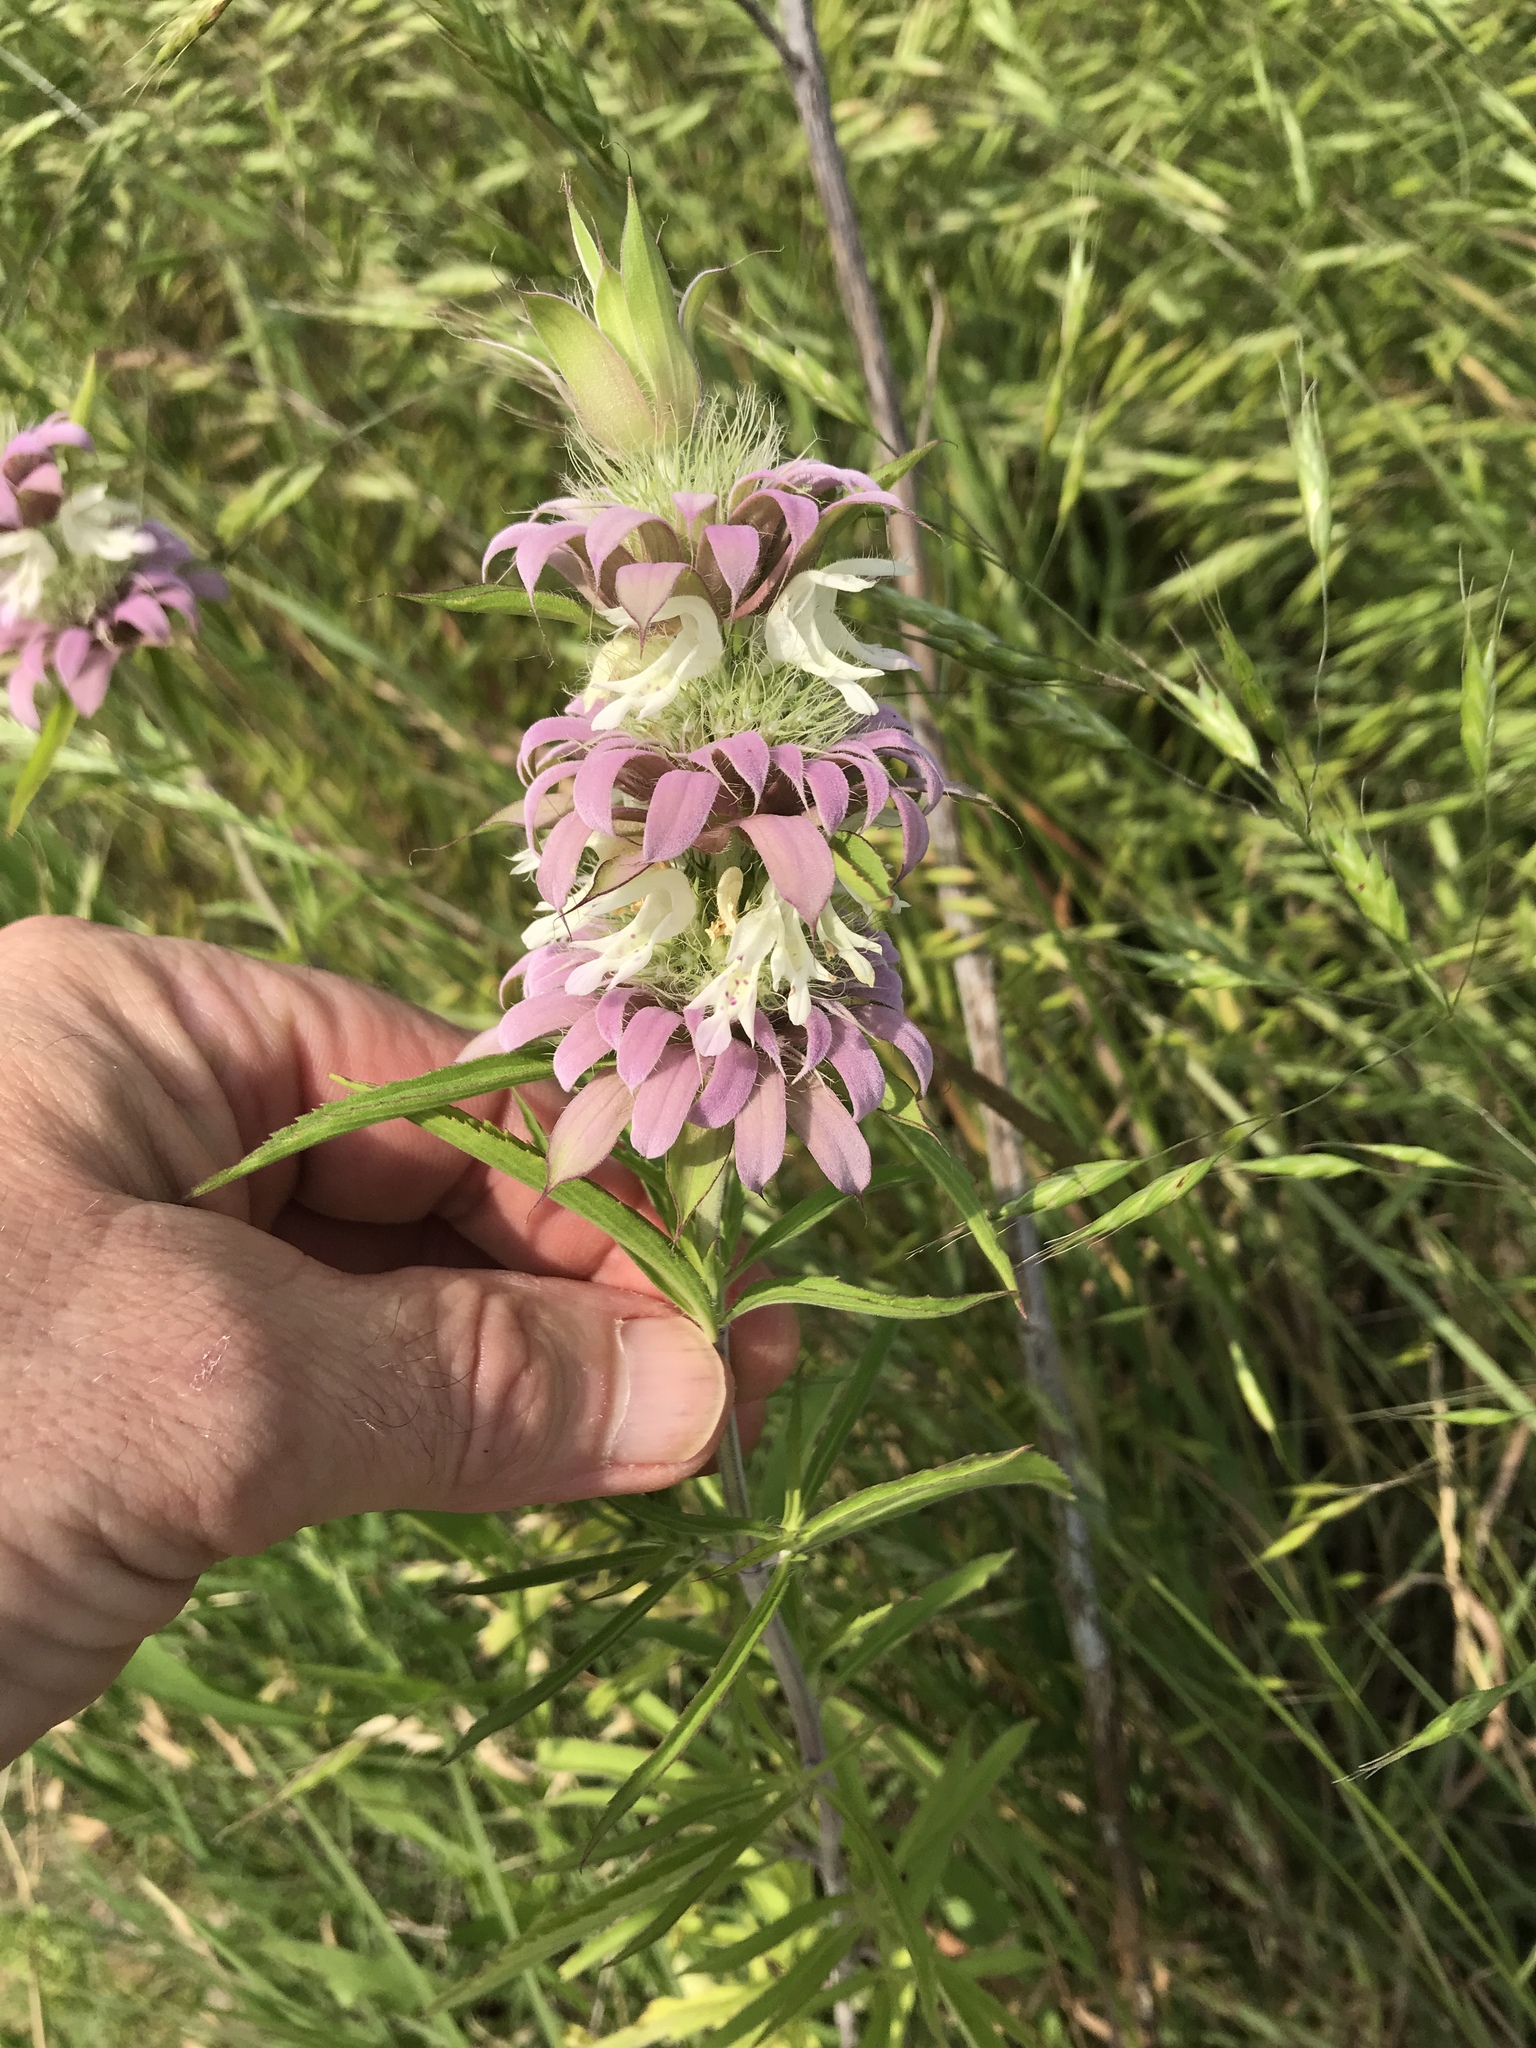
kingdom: Plantae
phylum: Tracheophyta
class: Magnoliopsida
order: Lamiales
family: Lamiaceae
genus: Monarda
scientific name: Monarda citriodora
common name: Lemon beebalm
